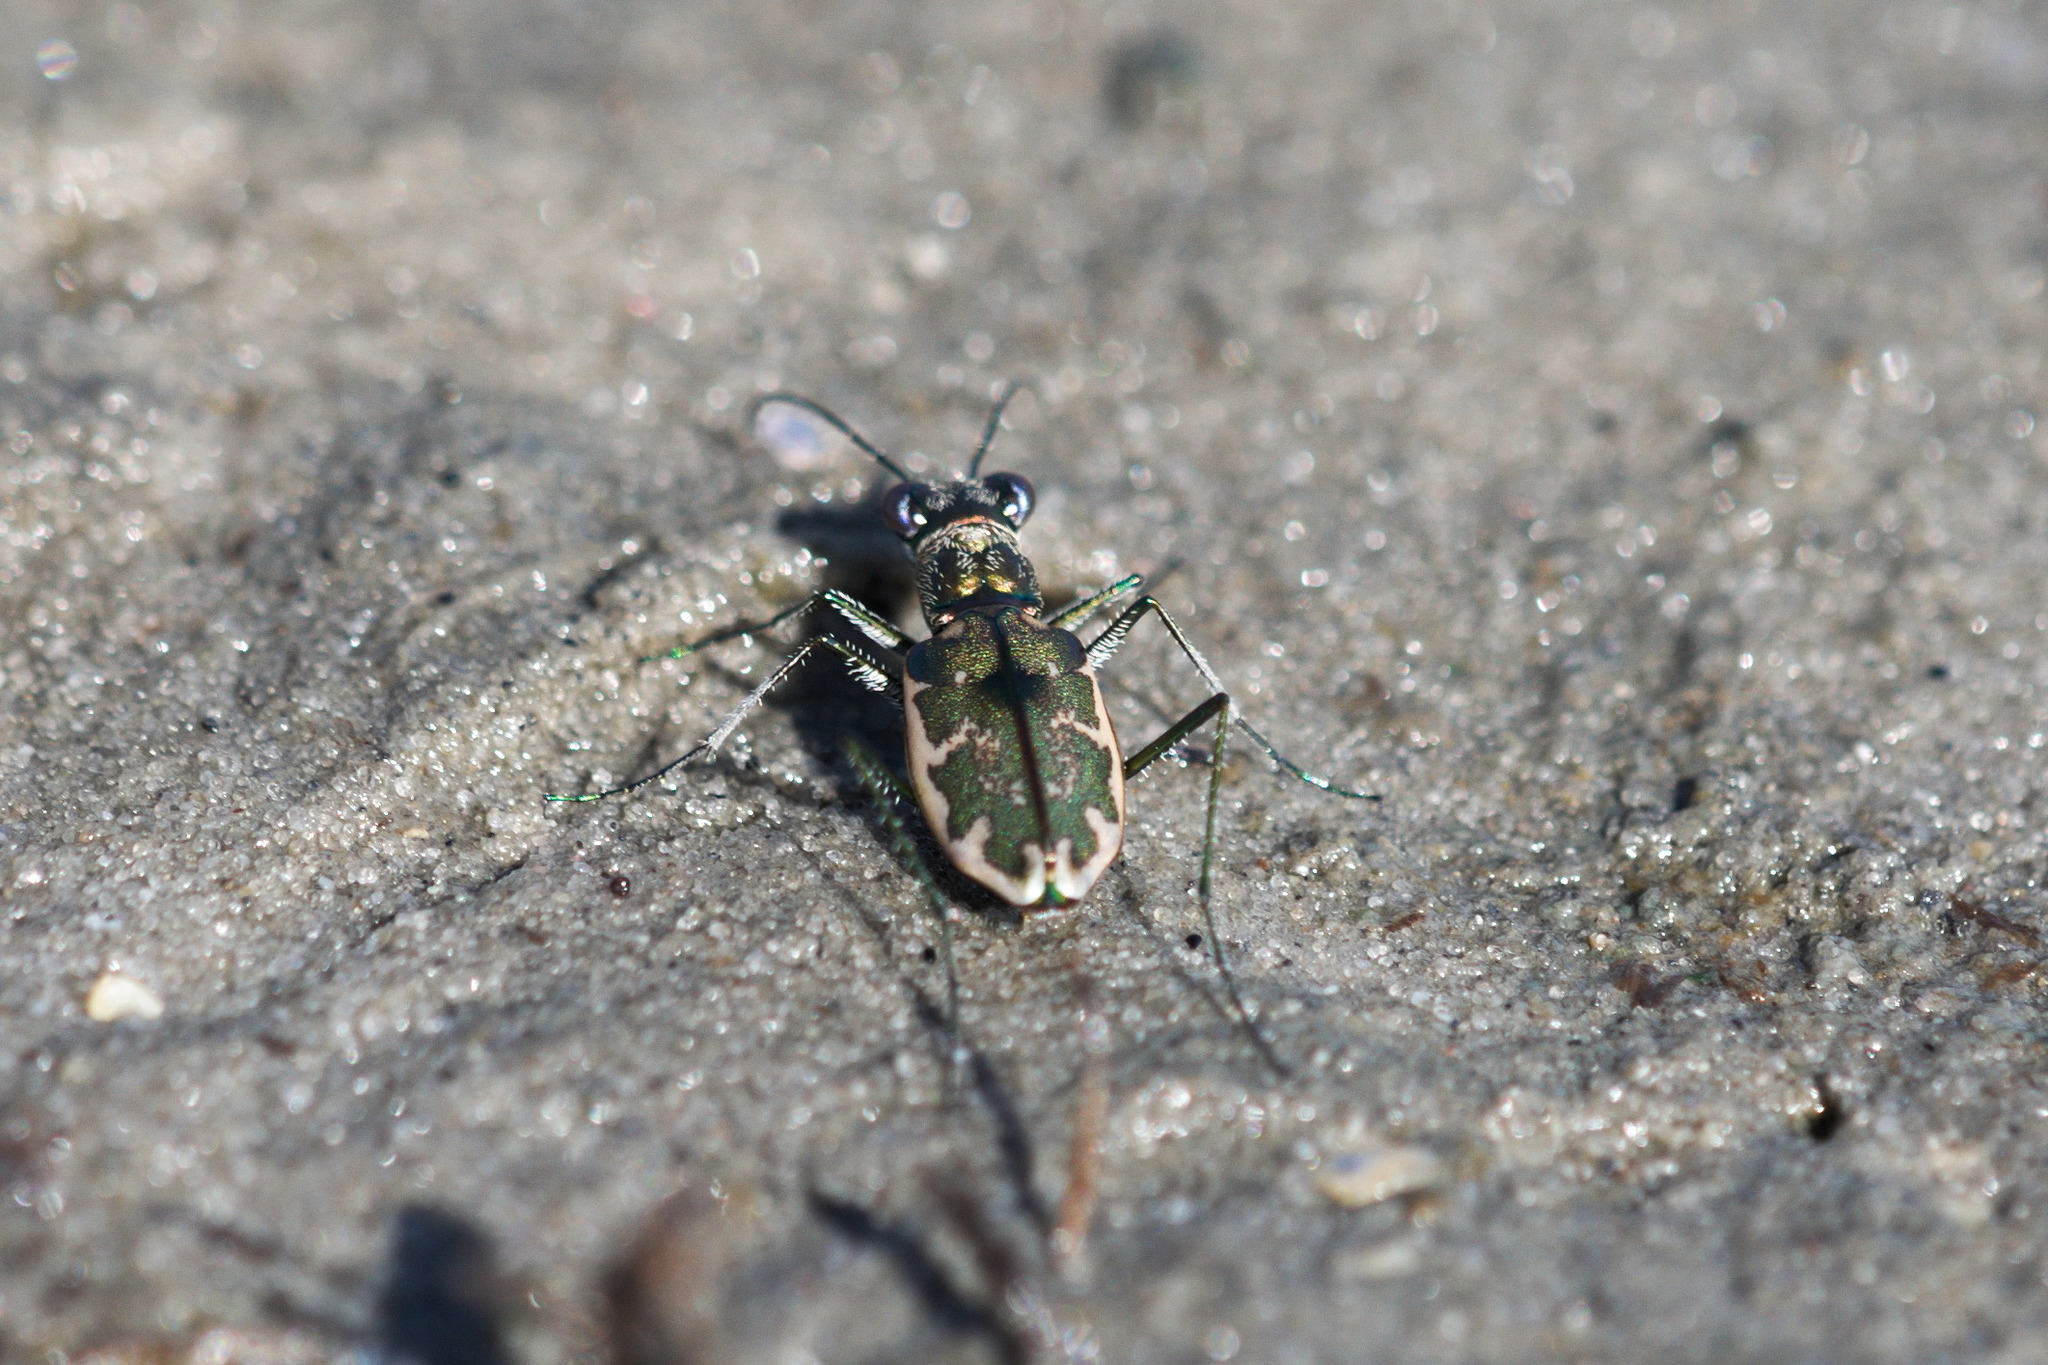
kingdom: Animalia
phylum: Arthropoda
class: Insecta
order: Coleoptera
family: Carabidae
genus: Ellipsoptera
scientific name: Ellipsoptera marginata
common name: Margined tiger beetle
